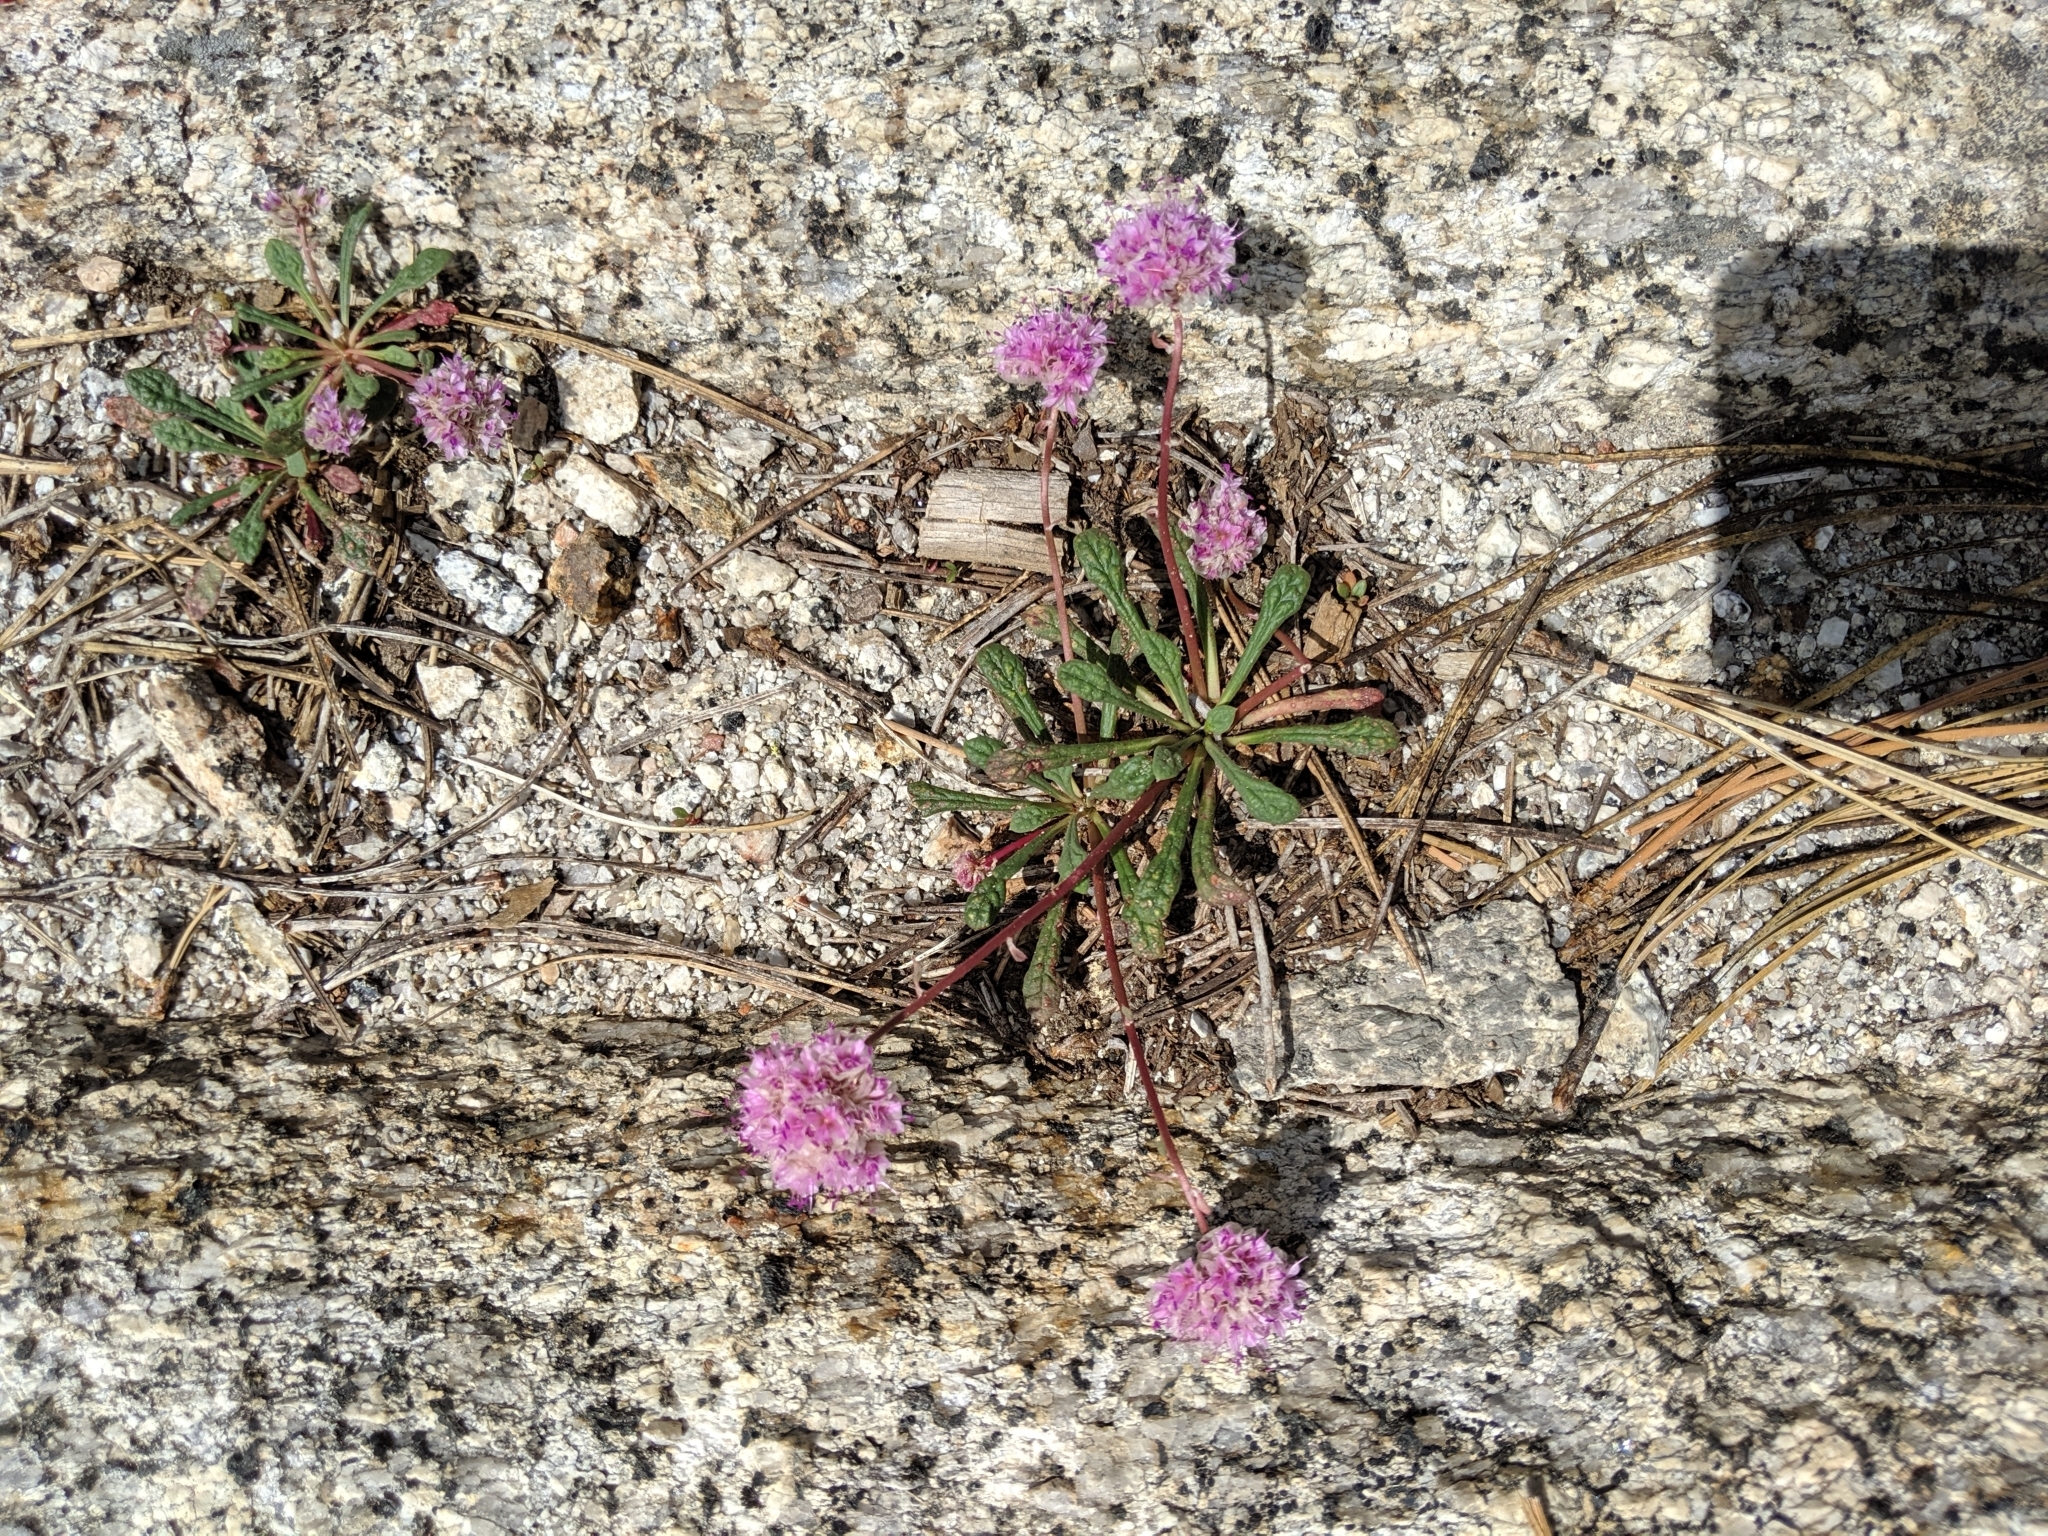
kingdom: Plantae
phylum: Tracheophyta
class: Magnoliopsida
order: Caryophyllales
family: Montiaceae
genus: Calyptridium
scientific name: Calyptridium monospermum
